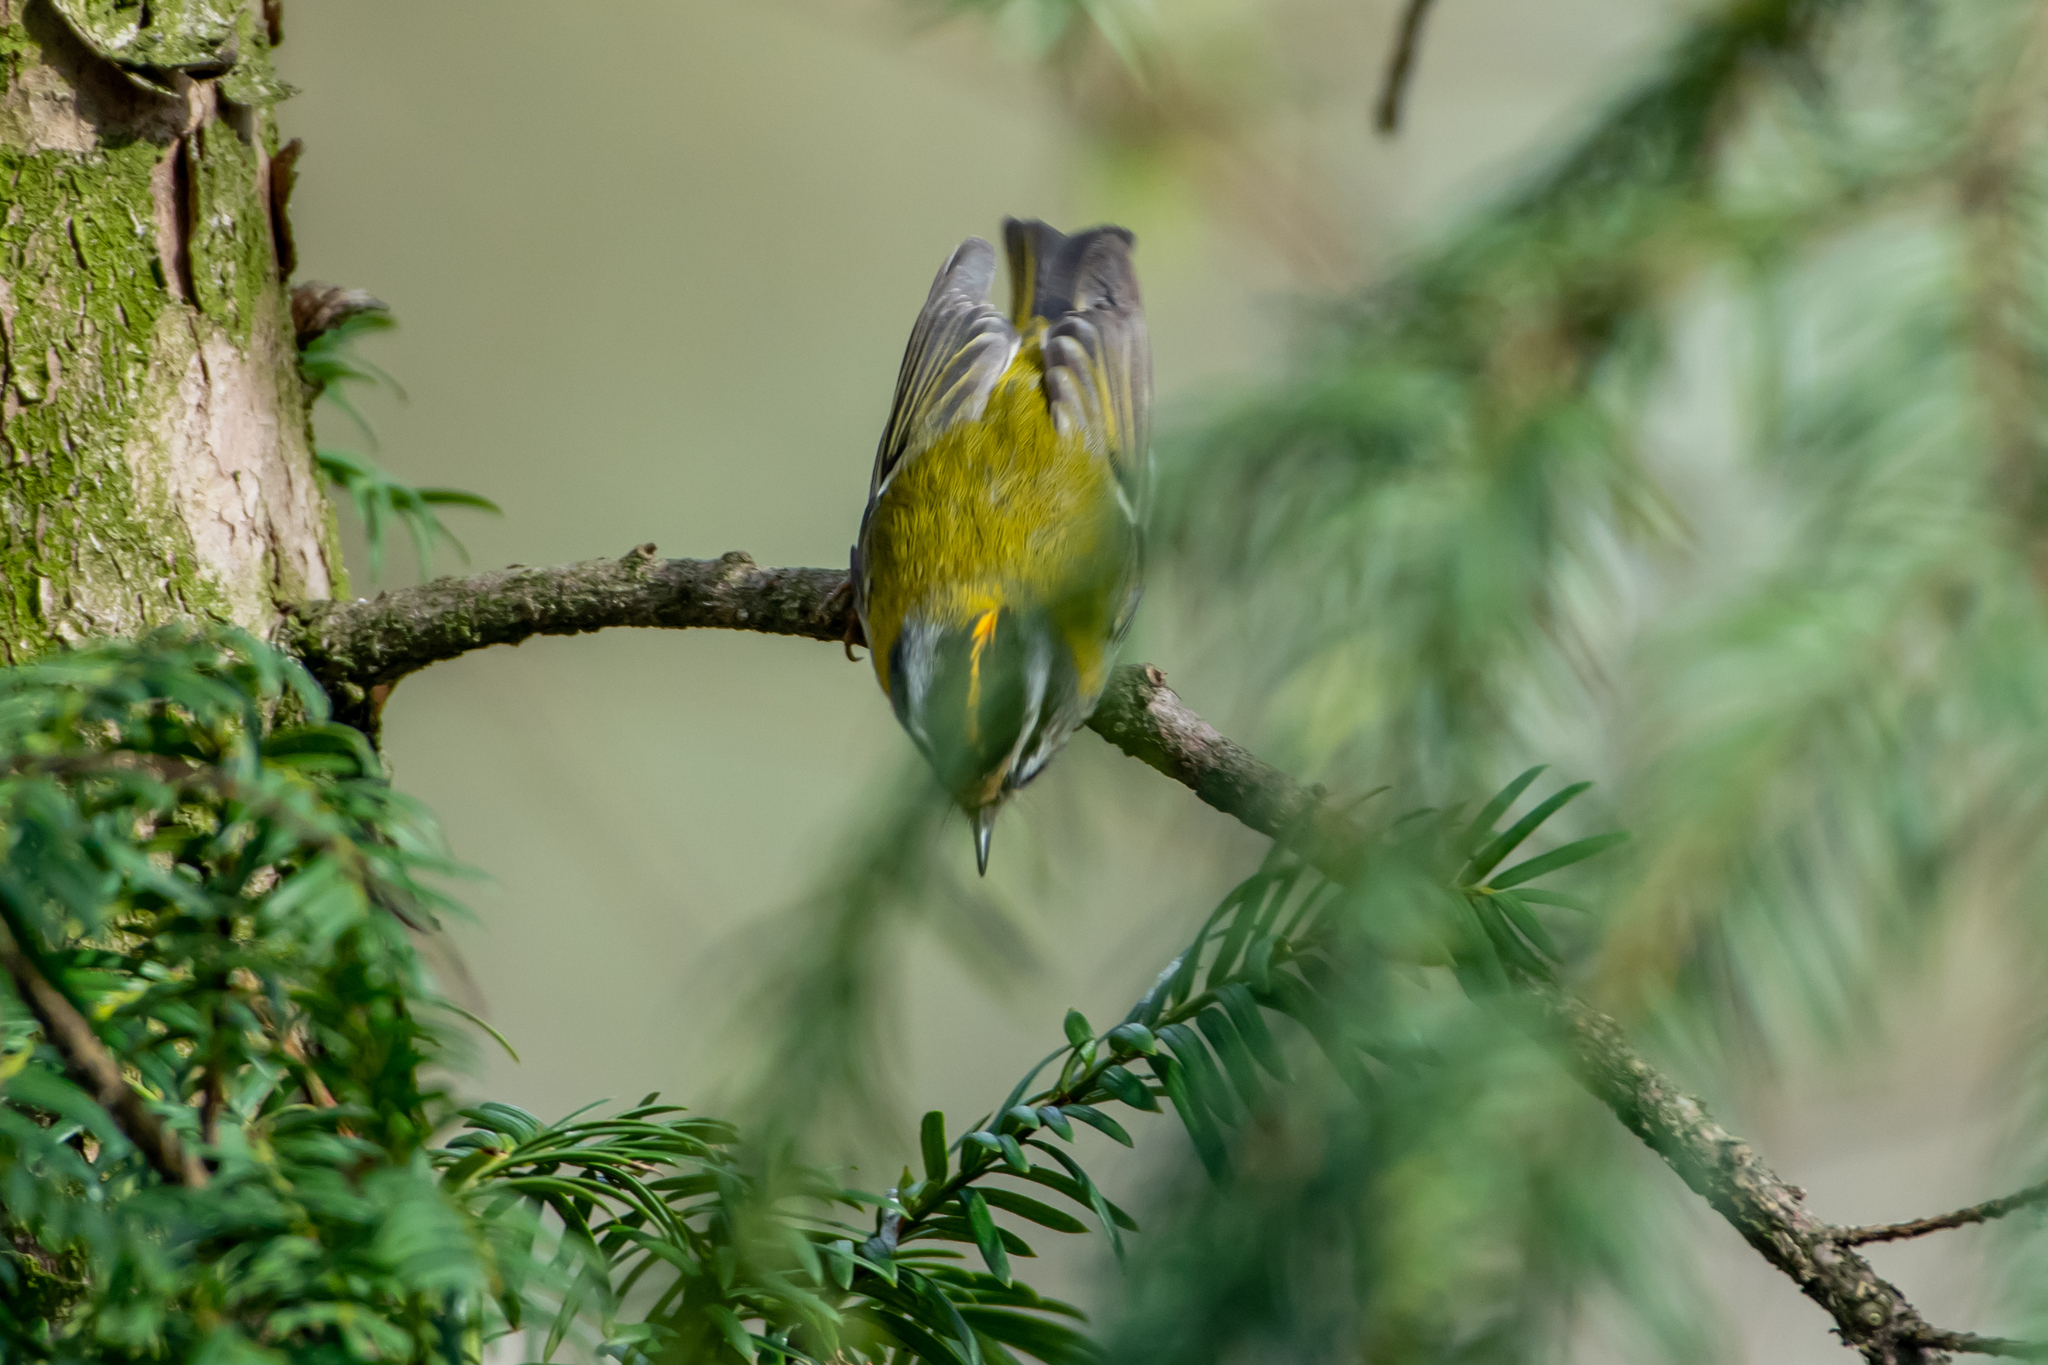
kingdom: Animalia
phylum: Chordata
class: Aves
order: Passeriformes
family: Regulidae
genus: Regulus
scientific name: Regulus ignicapilla
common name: Firecrest
